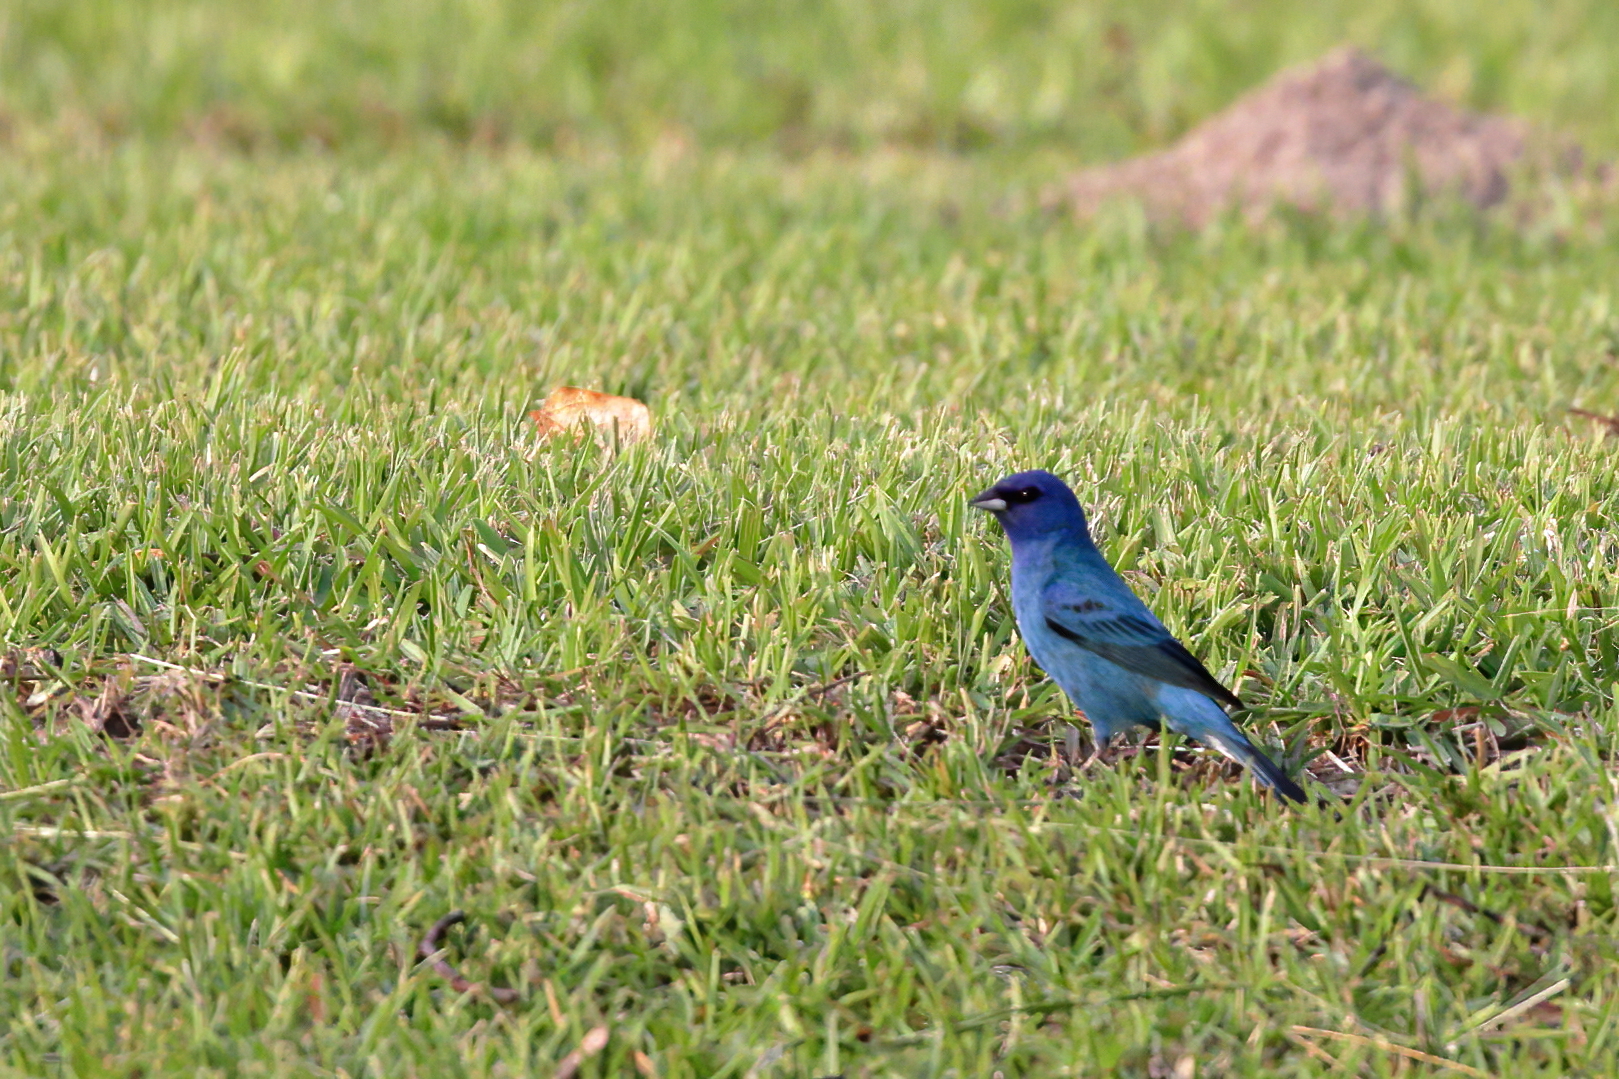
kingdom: Animalia
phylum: Chordata
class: Aves
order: Passeriformes
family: Cardinalidae
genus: Passerina
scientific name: Passerina cyanea
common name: Indigo bunting
